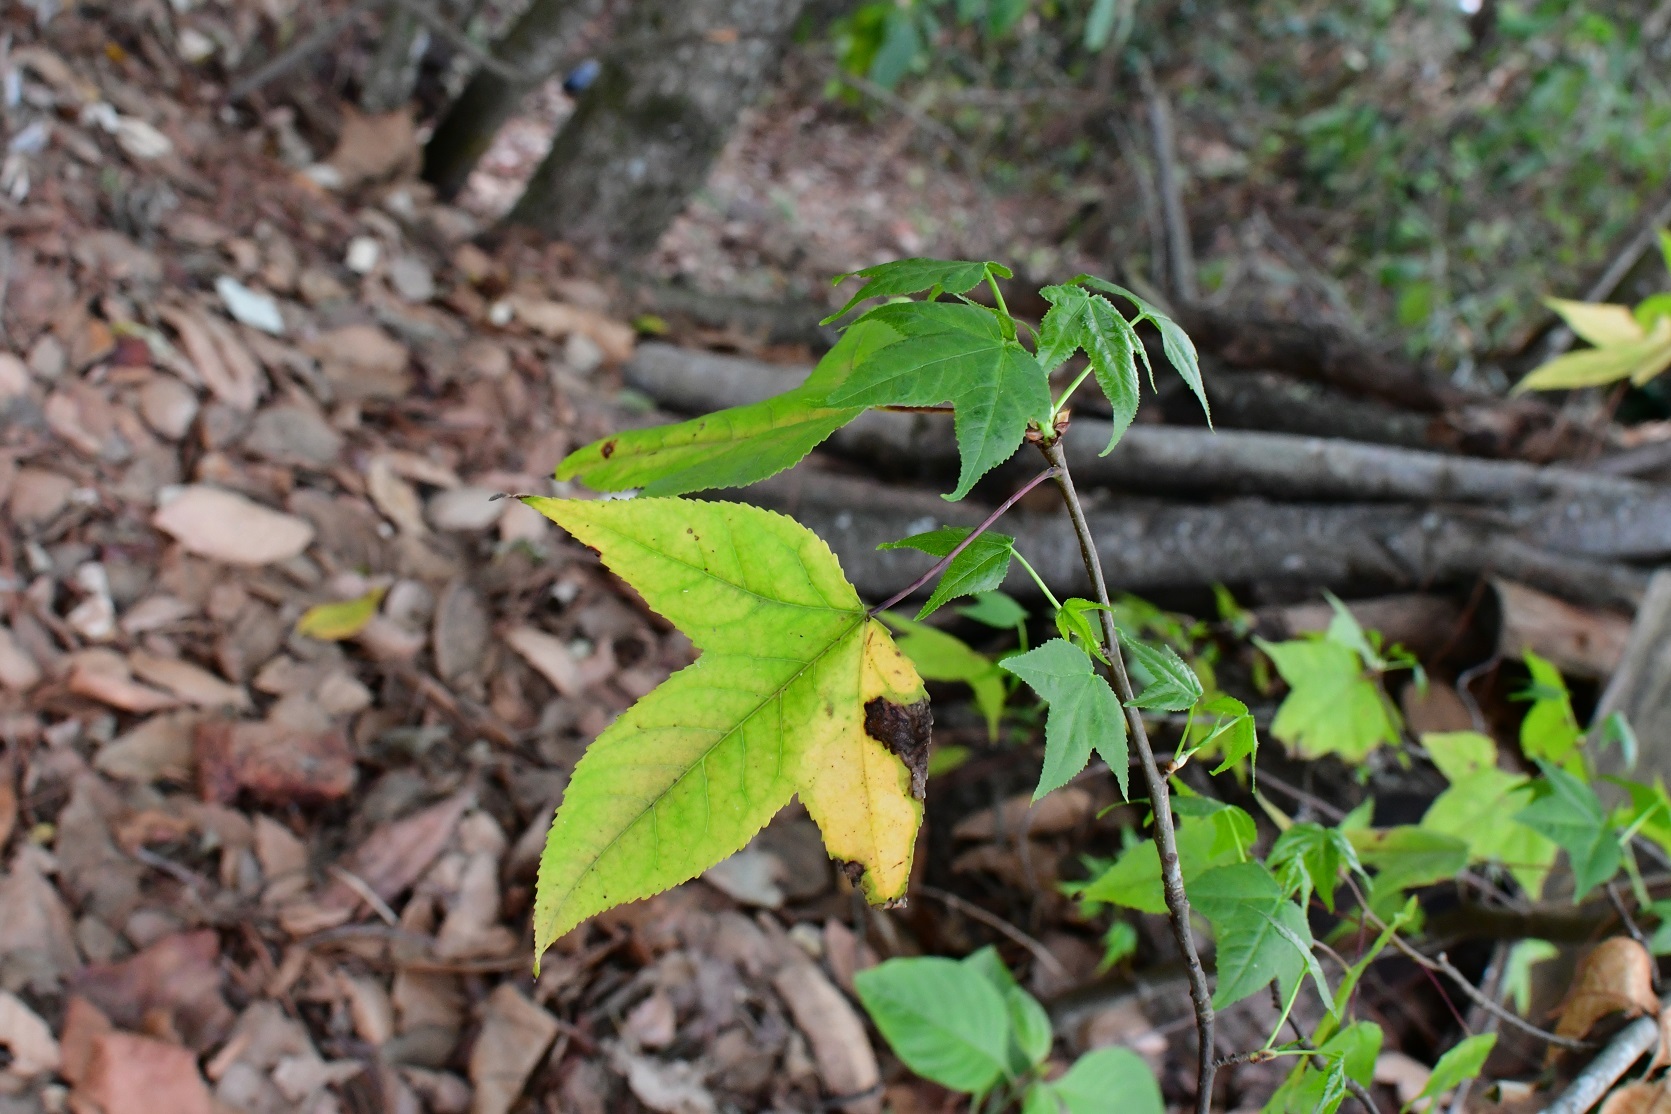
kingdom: Plantae
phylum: Tracheophyta
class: Magnoliopsida
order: Saxifragales
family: Altingiaceae
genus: Liquidambar
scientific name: Liquidambar styraciflua
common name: Sweet gum
